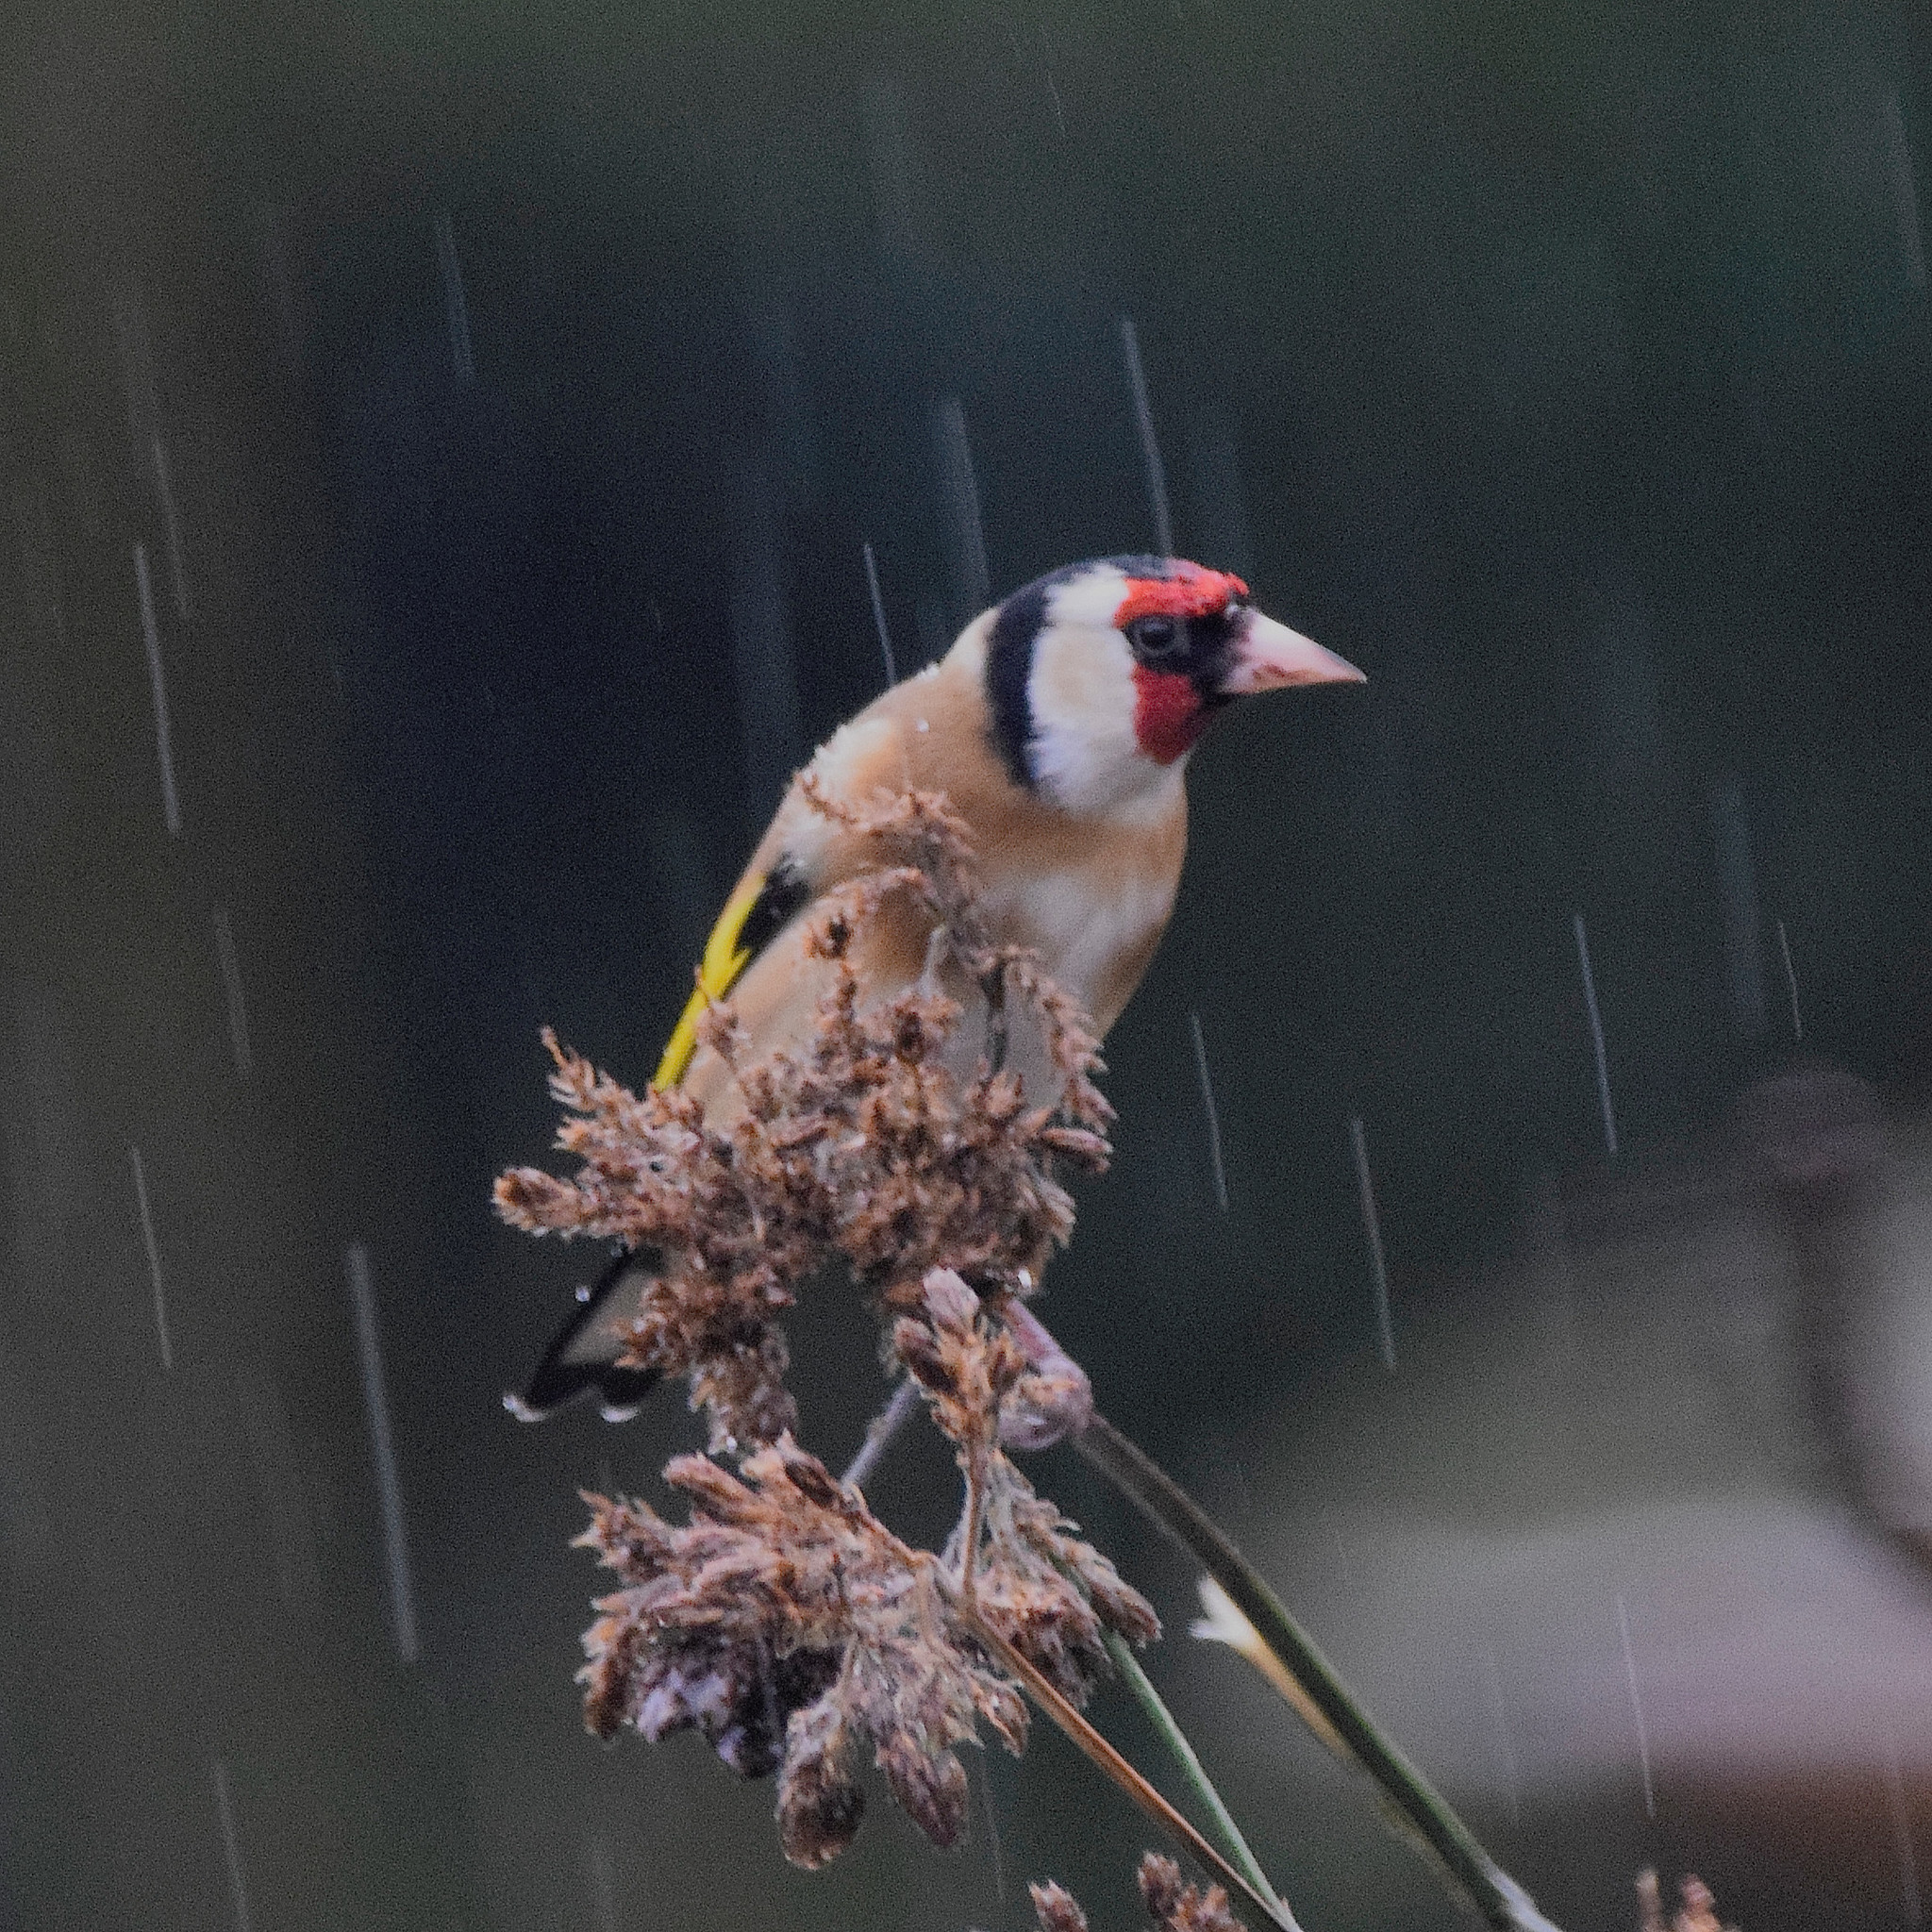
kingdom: Animalia
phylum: Chordata
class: Aves
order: Passeriformes
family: Fringillidae
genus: Carduelis
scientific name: Carduelis carduelis
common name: European goldfinch
